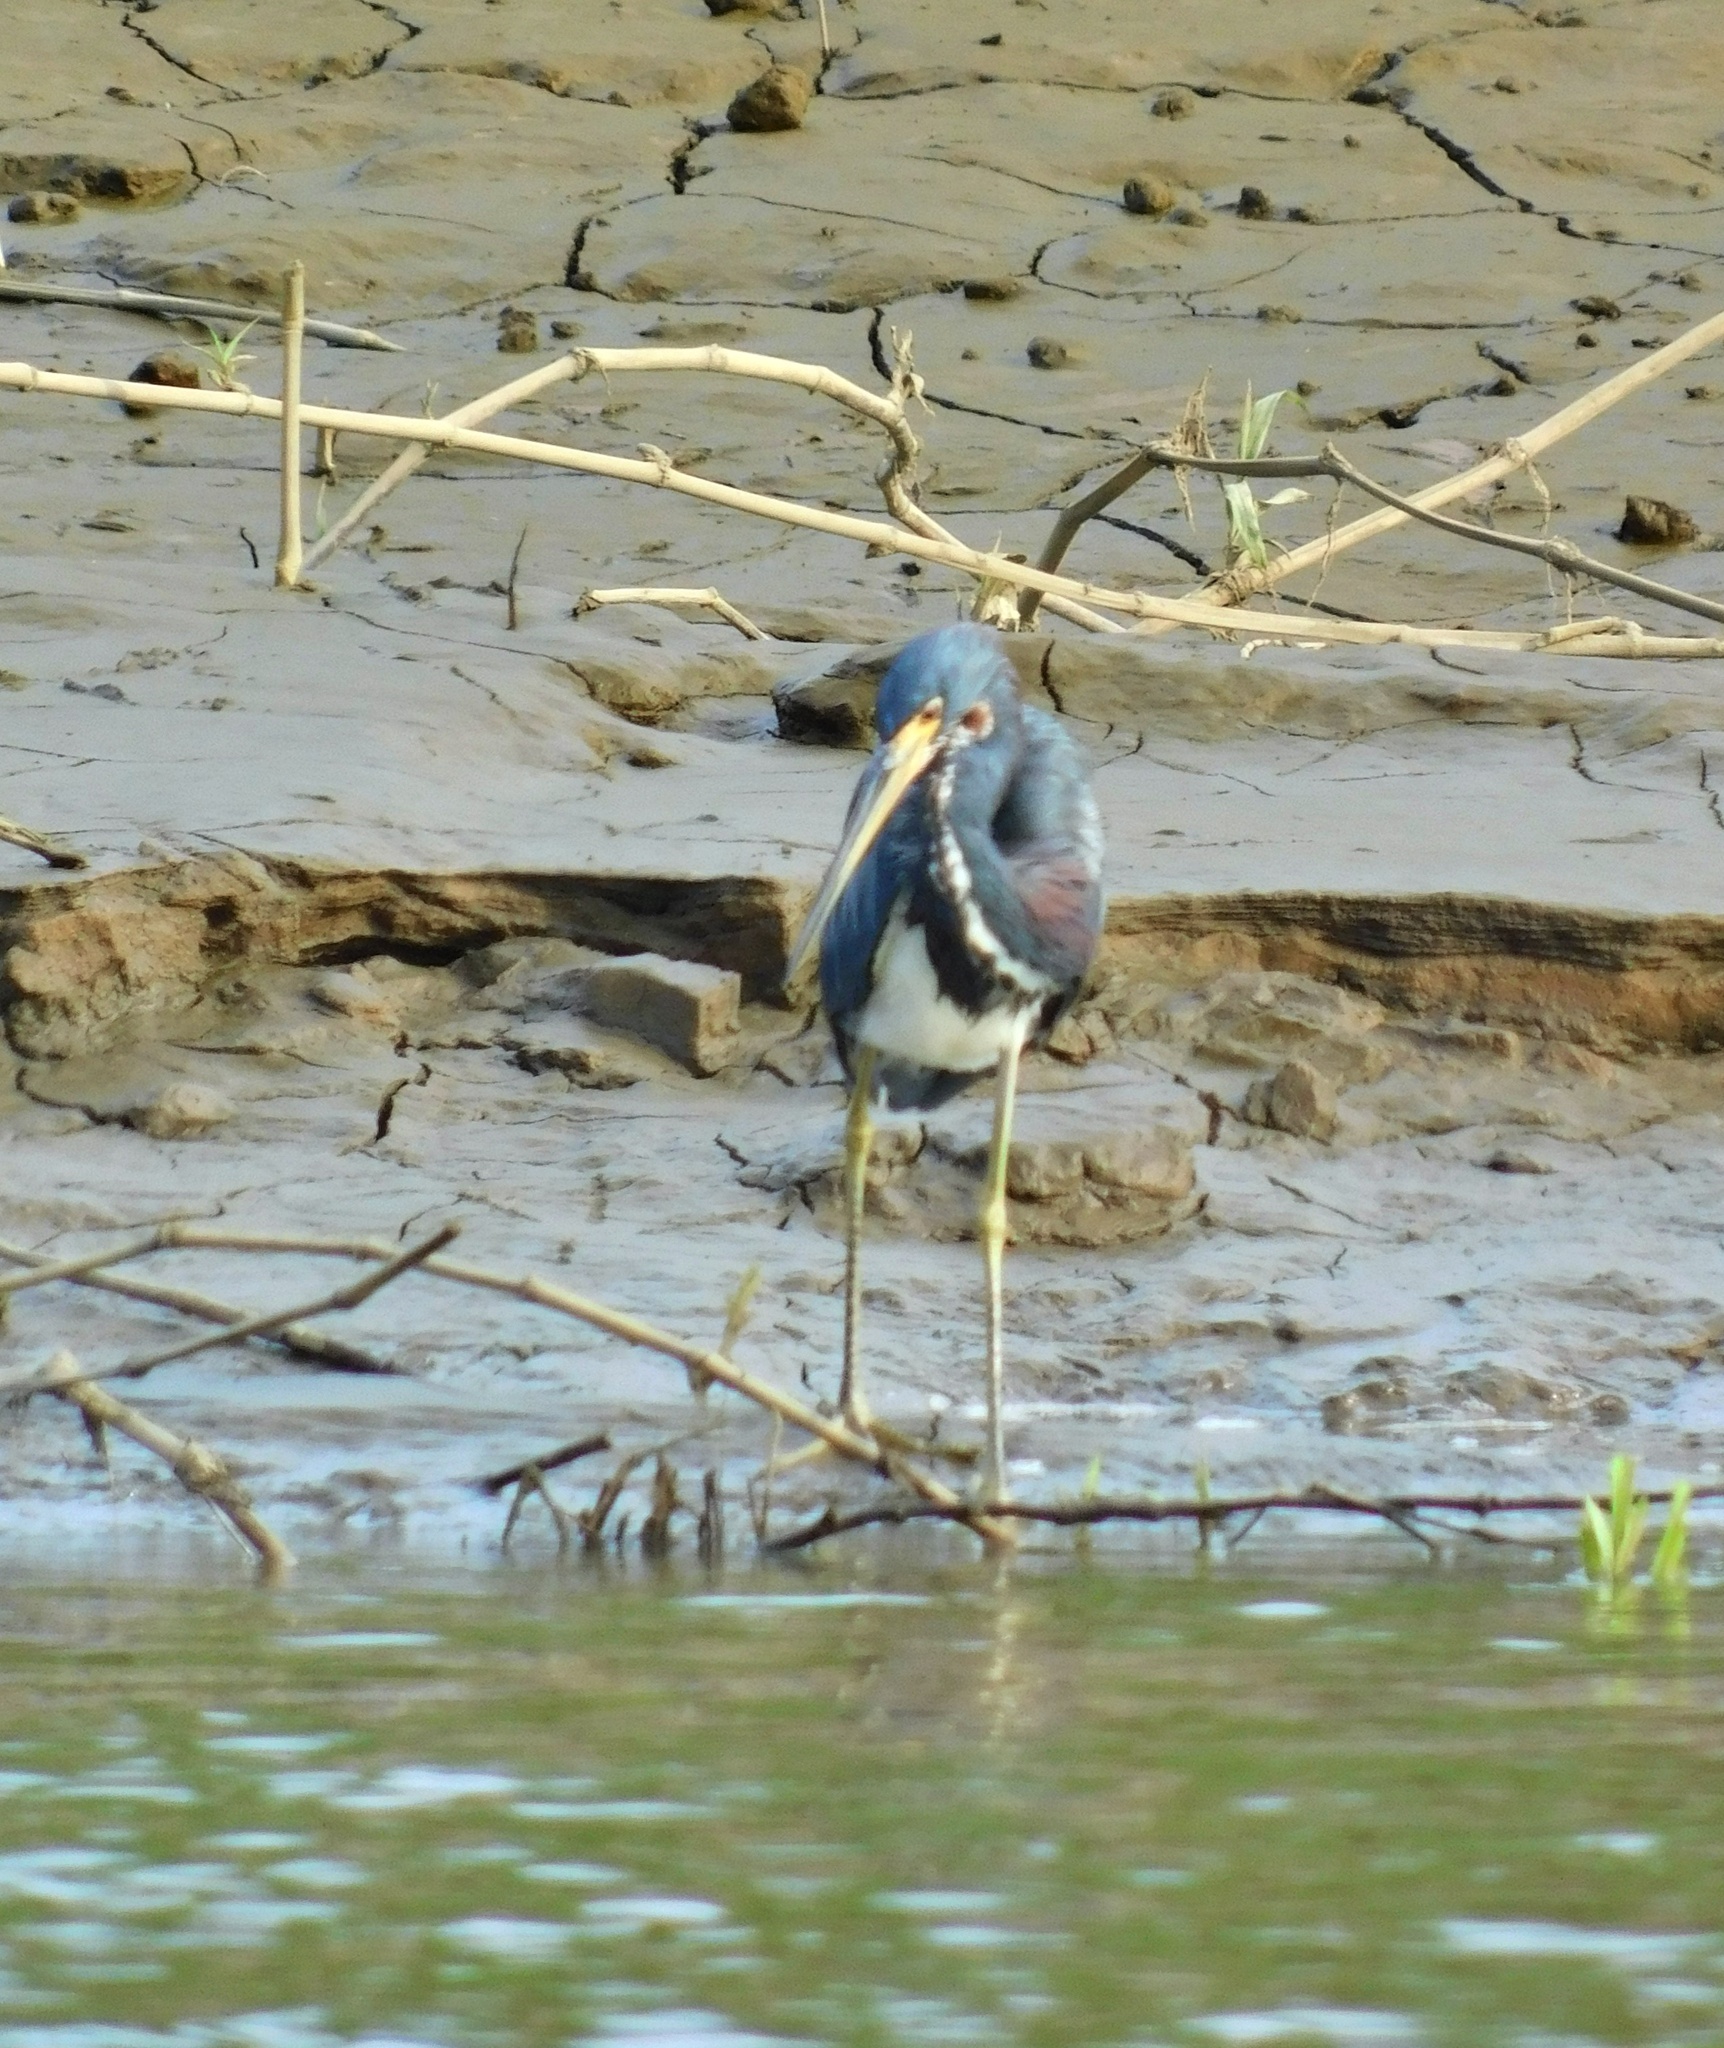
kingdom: Animalia
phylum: Chordata
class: Aves
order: Pelecaniformes
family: Ardeidae
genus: Egretta
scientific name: Egretta tricolor
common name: Tricolored heron
